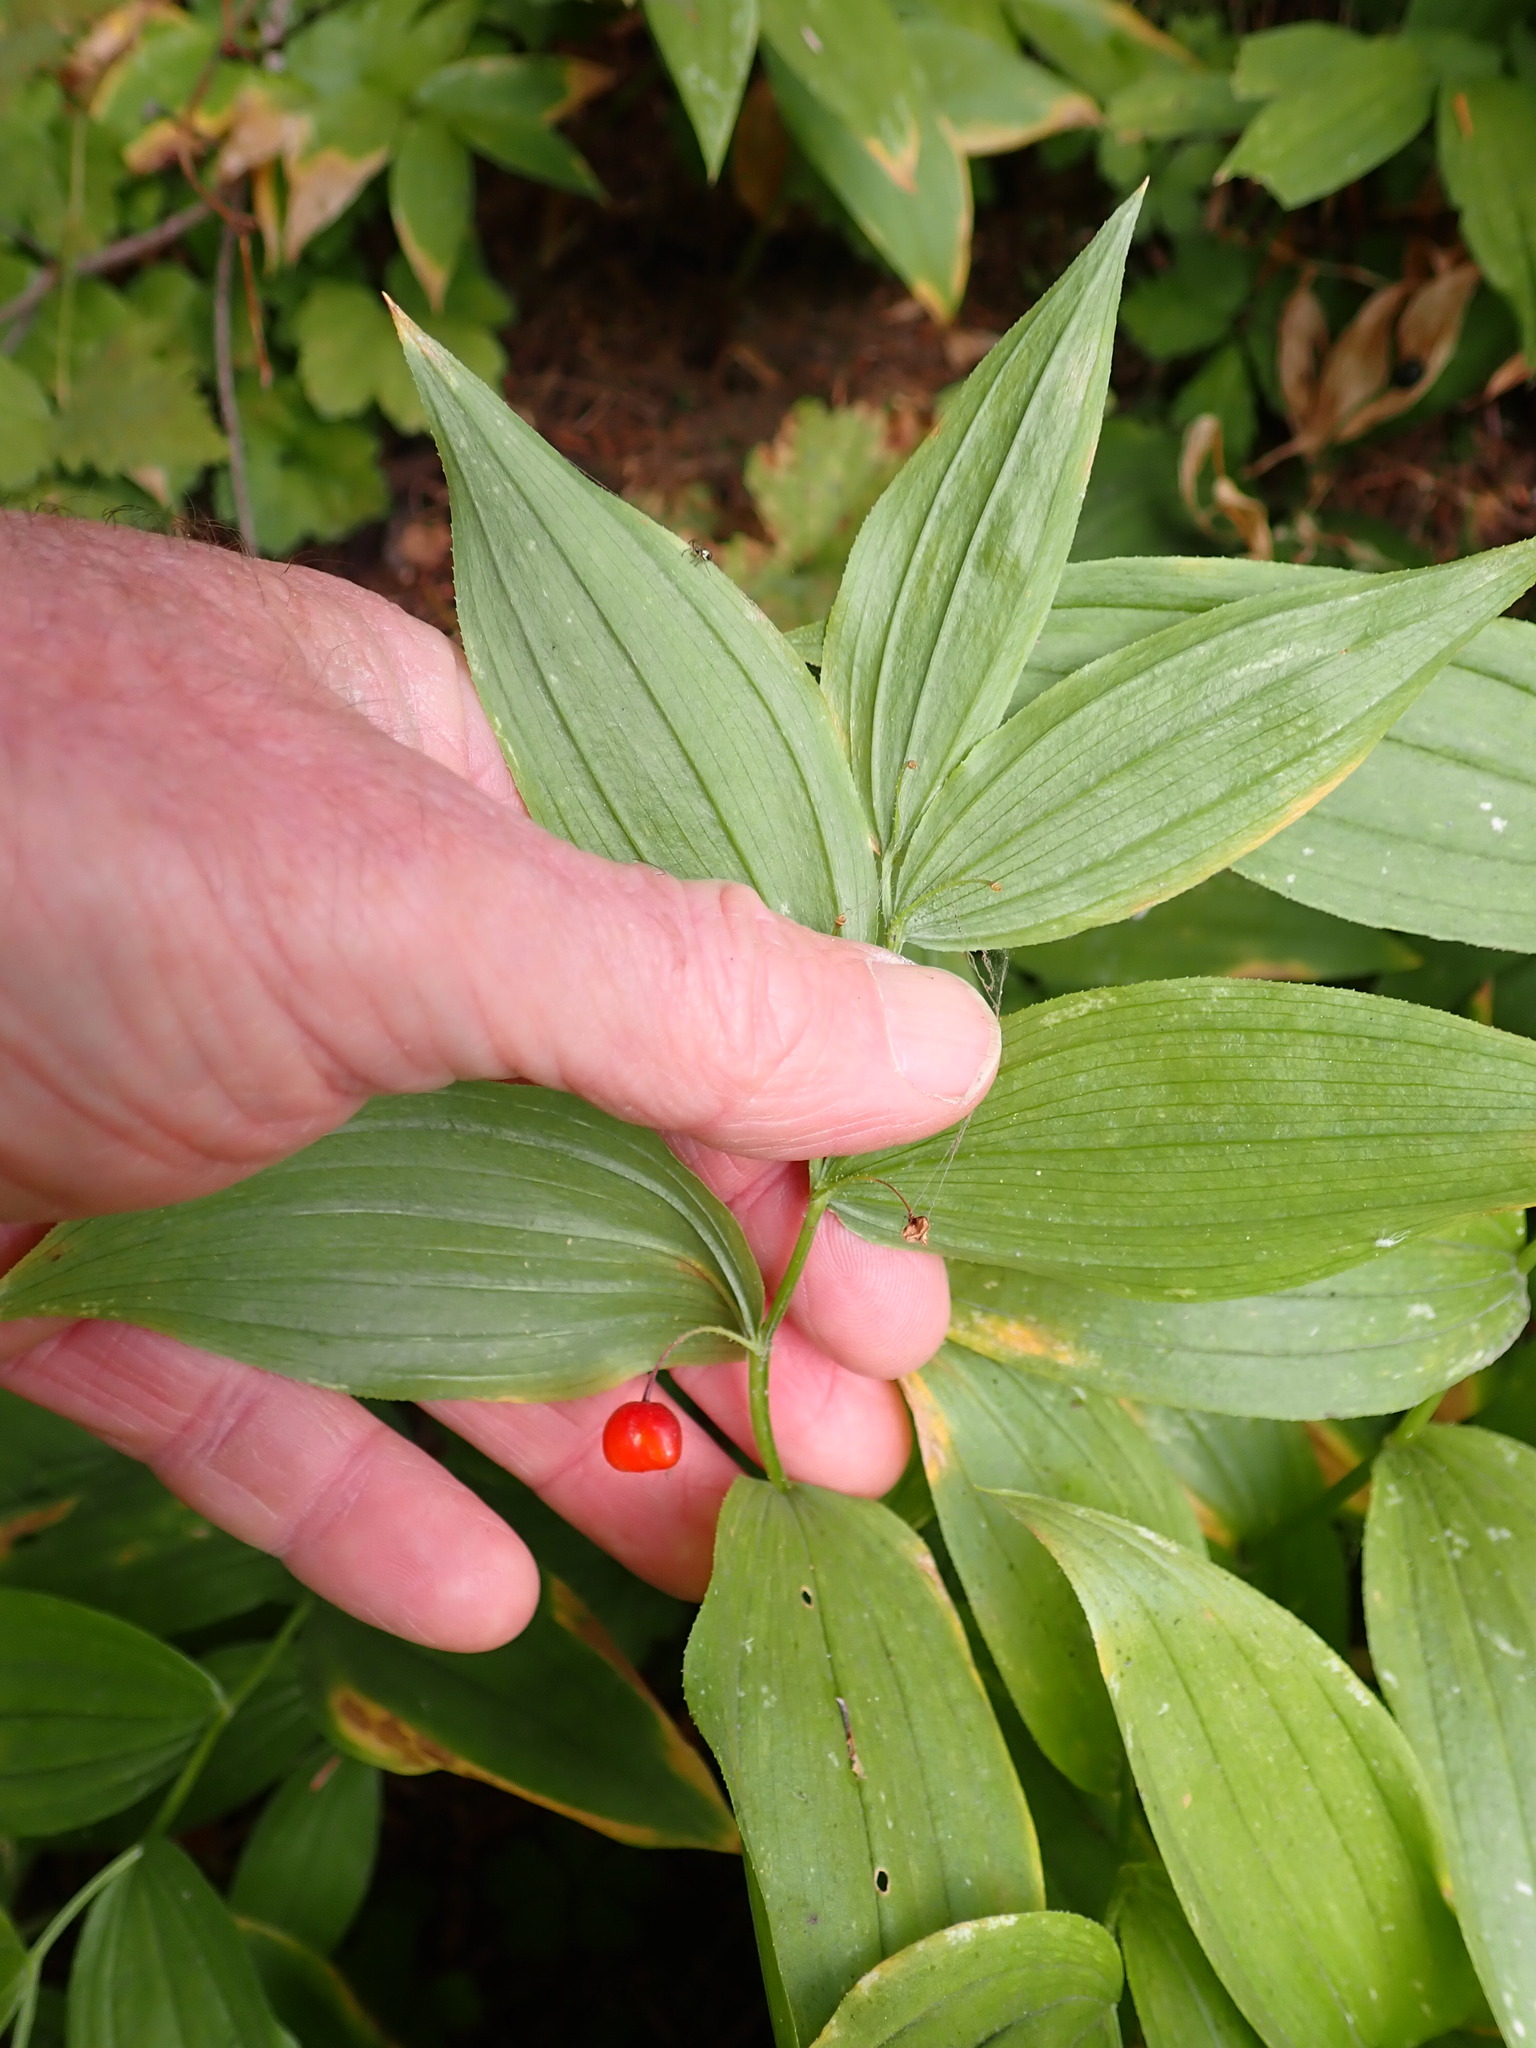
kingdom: Plantae
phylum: Tracheophyta
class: Liliopsida
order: Liliales
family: Liliaceae
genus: Streptopus
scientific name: Streptopus lanceolatus
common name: Rose mandarin
